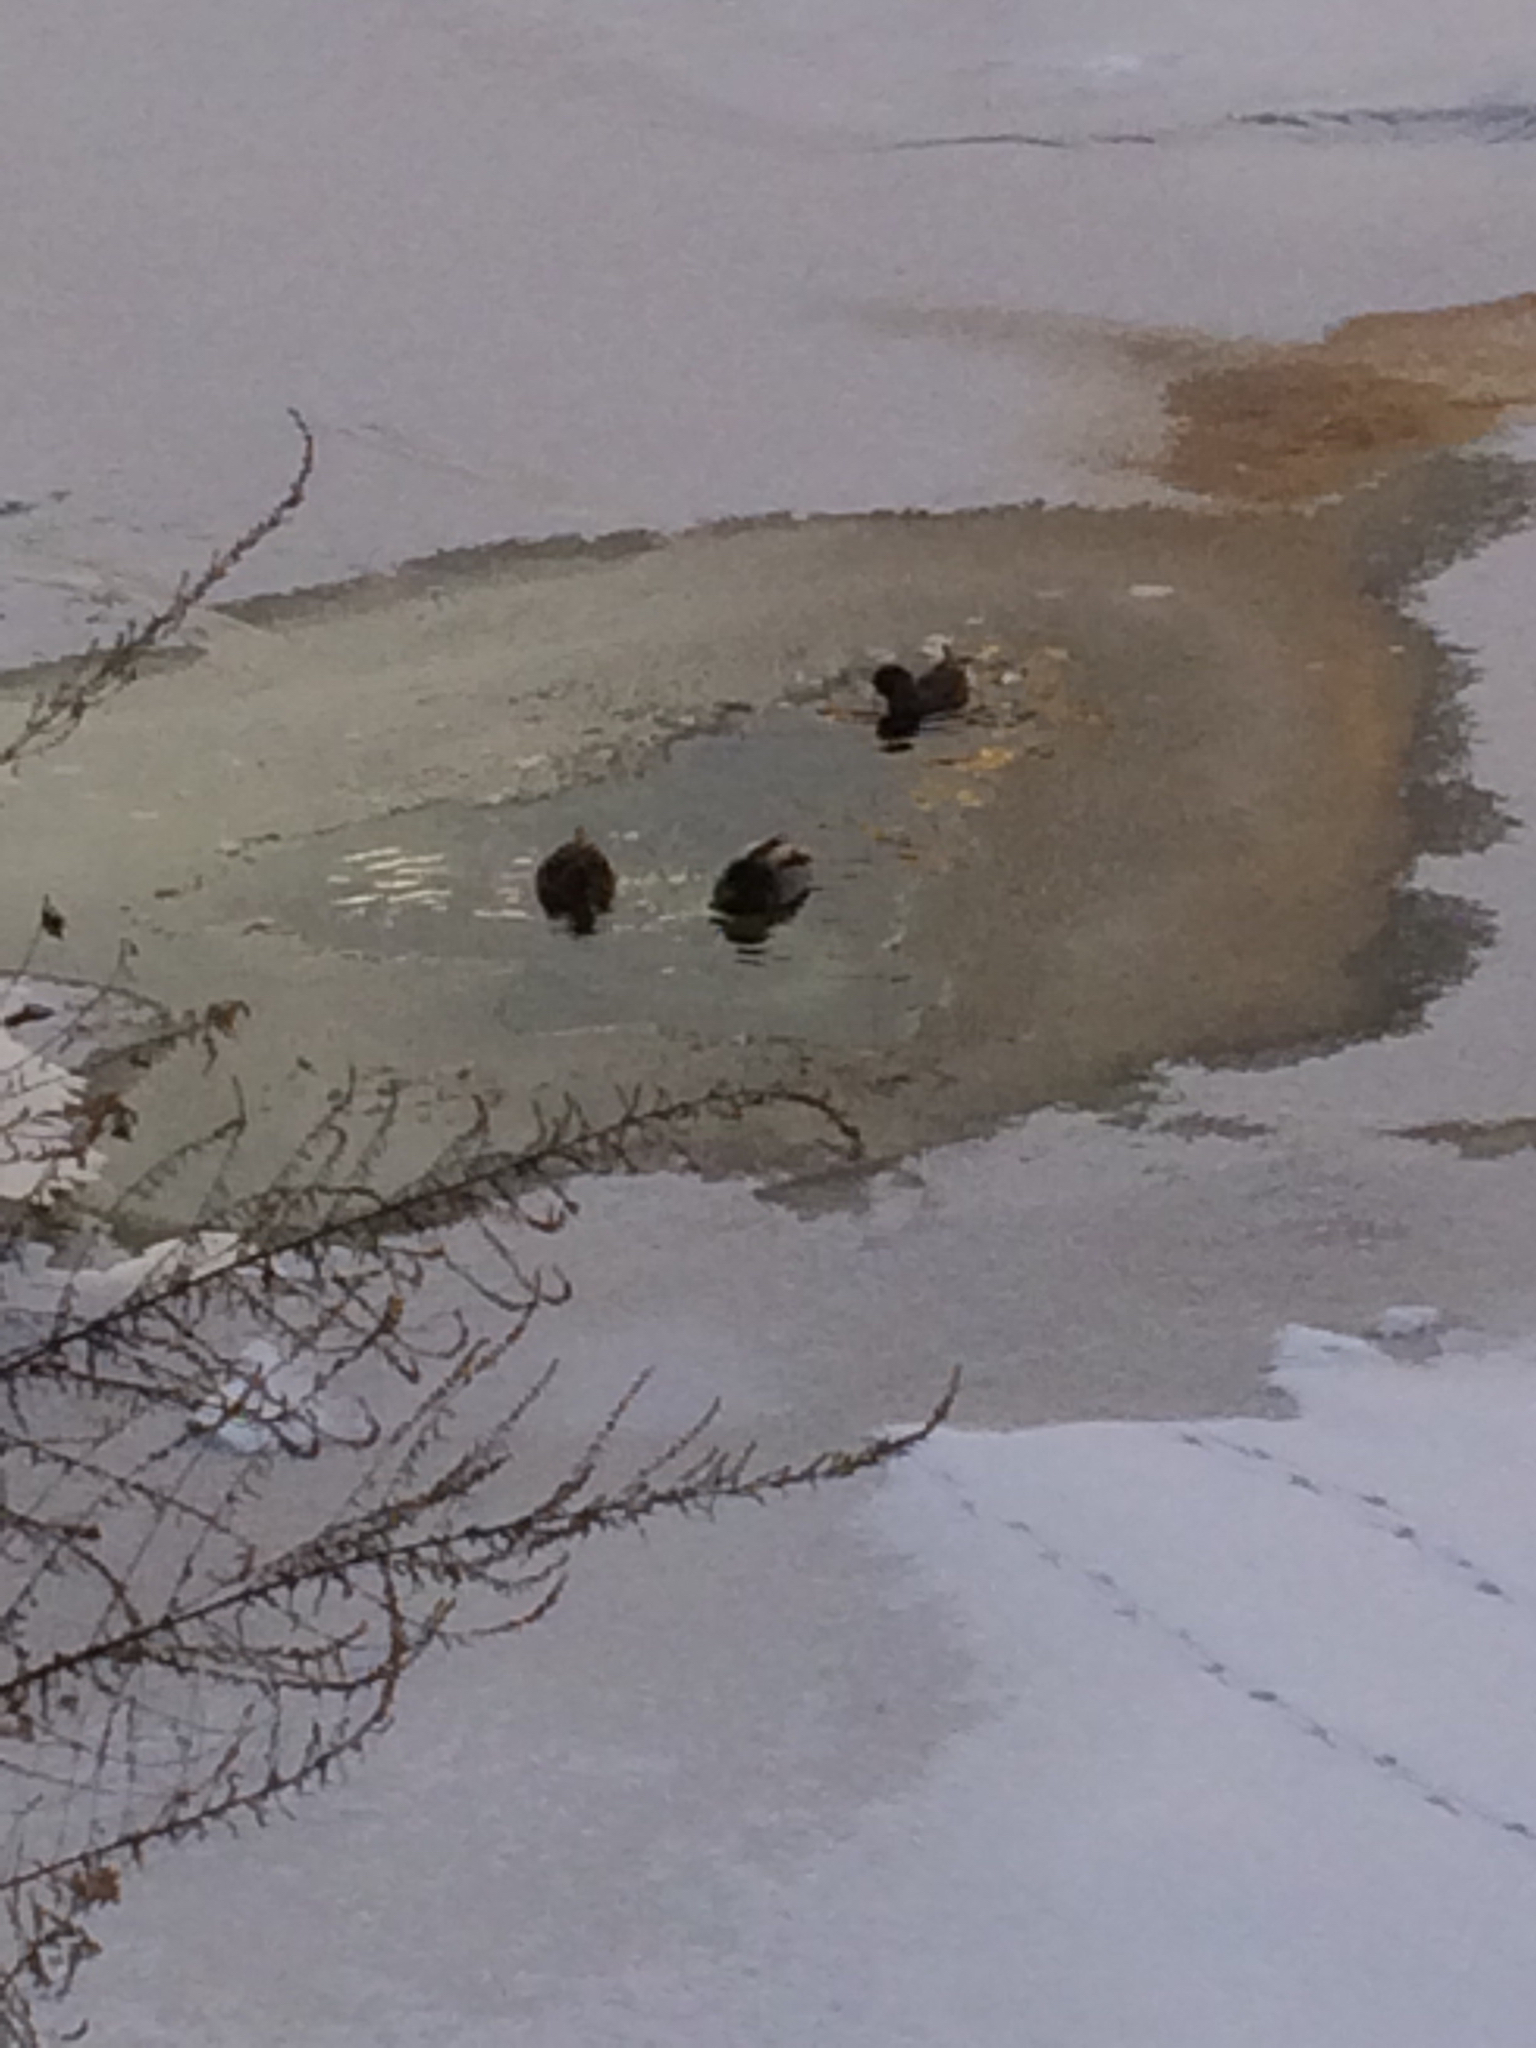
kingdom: Animalia
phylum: Chordata
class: Aves
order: Anseriformes
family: Anatidae
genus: Anas
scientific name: Anas platyrhynchos
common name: Mallard
